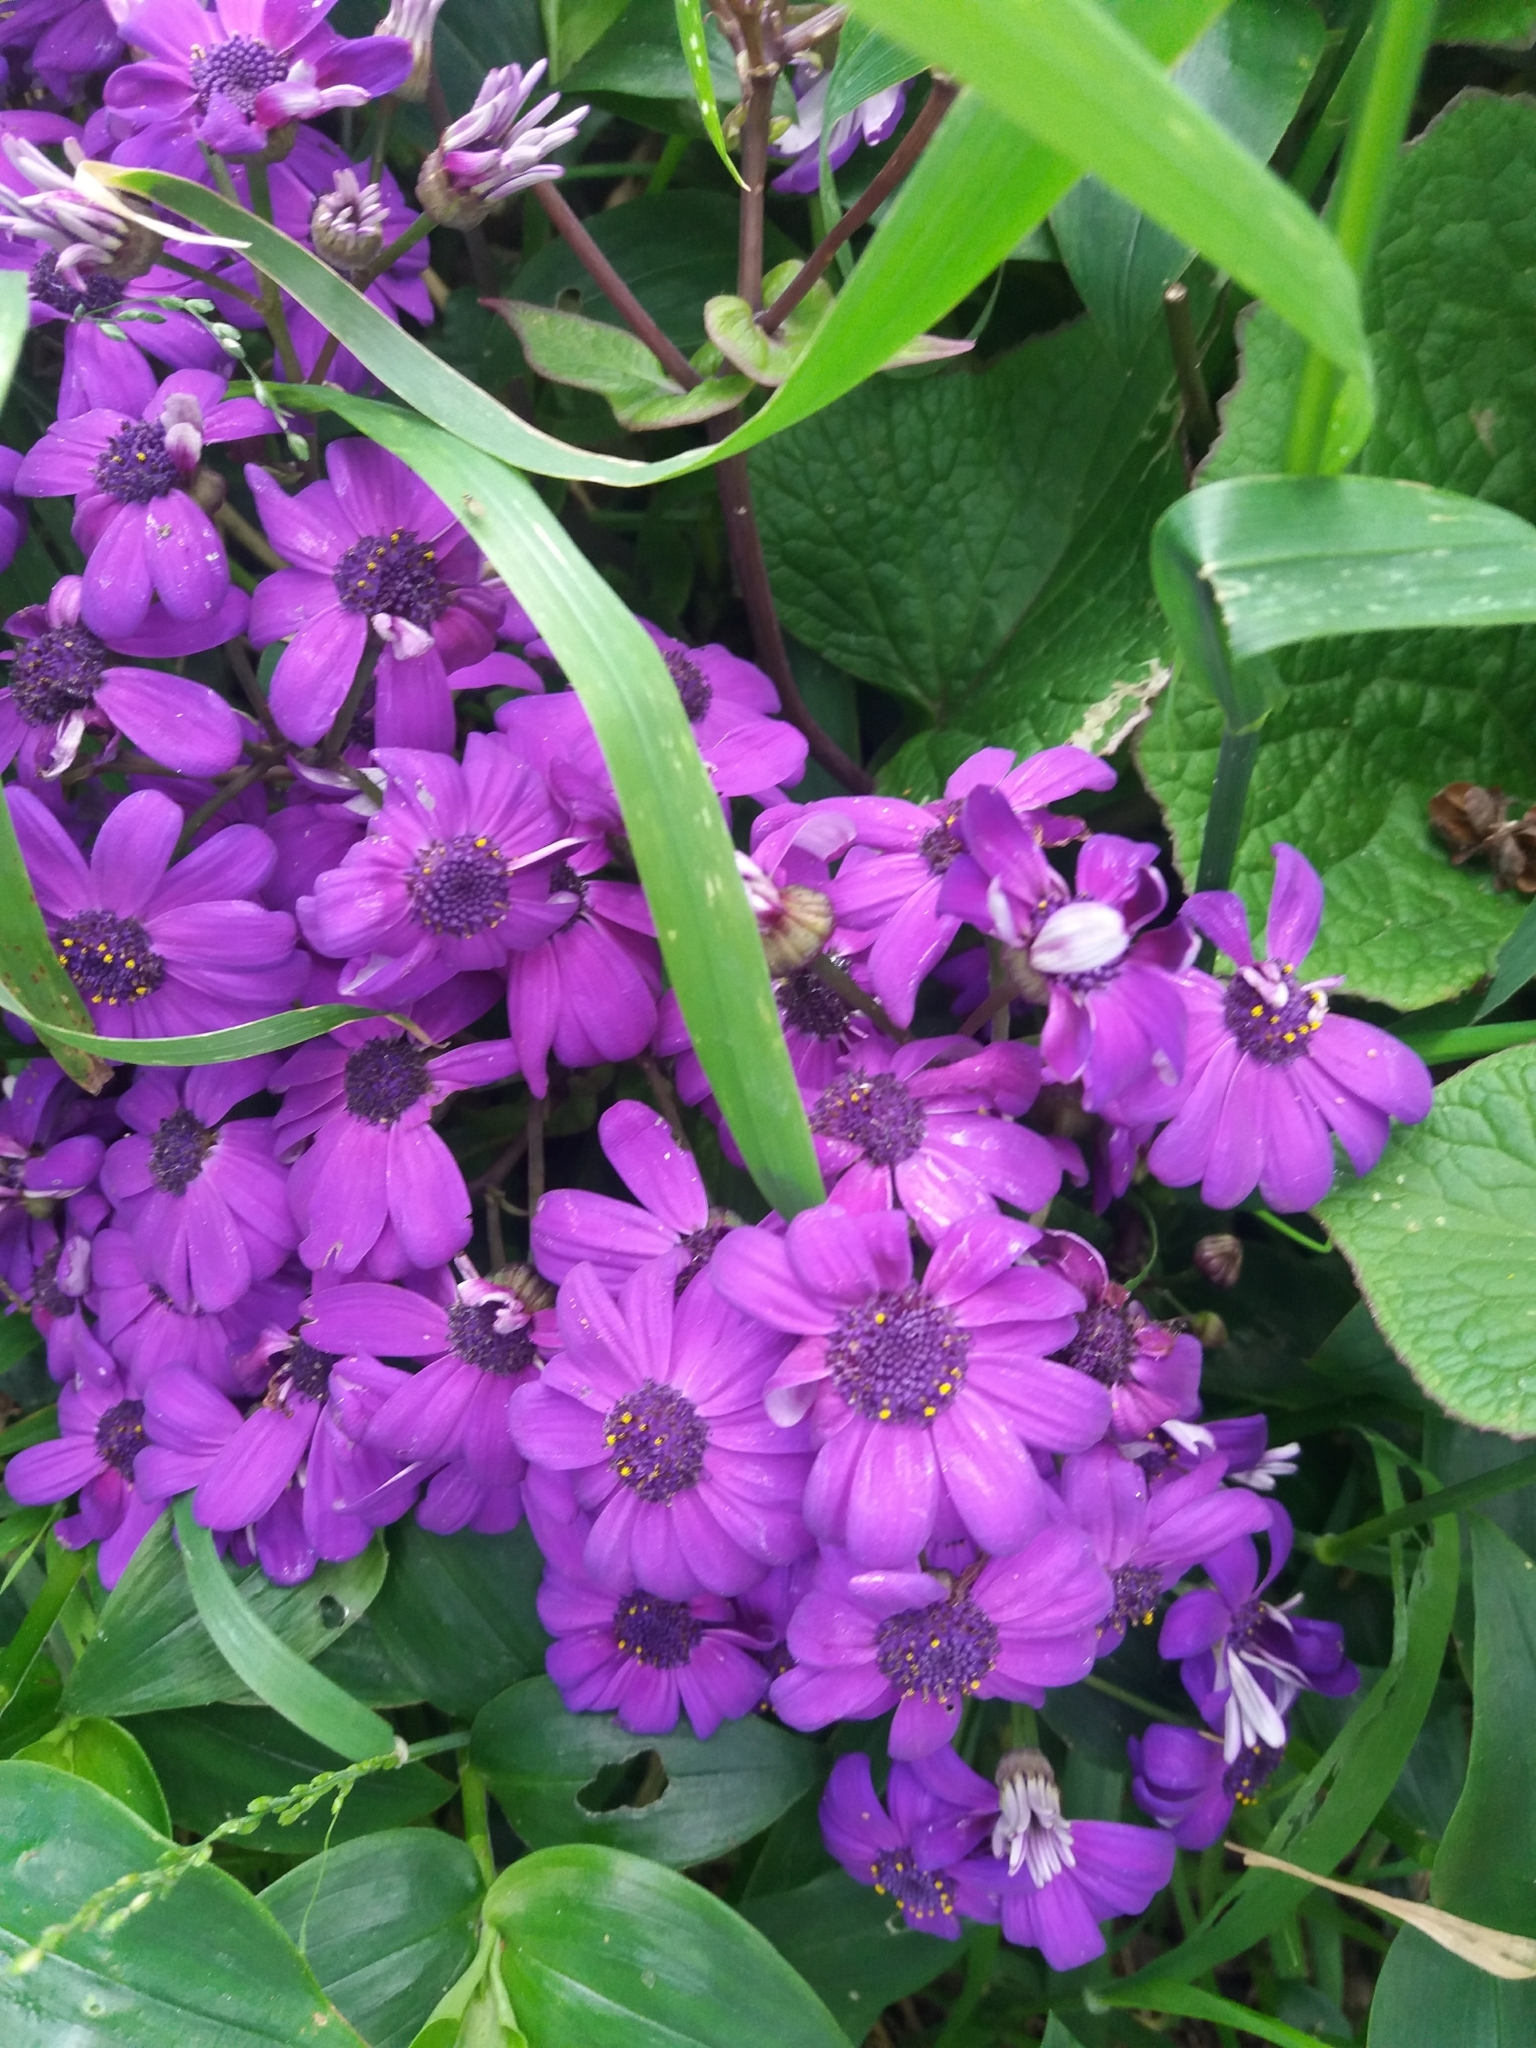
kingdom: Plantae
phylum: Tracheophyta
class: Magnoliopsida
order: Asterales
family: Asteraceae
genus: Pericallis
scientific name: Pericallis hybrida
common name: Cineraria
